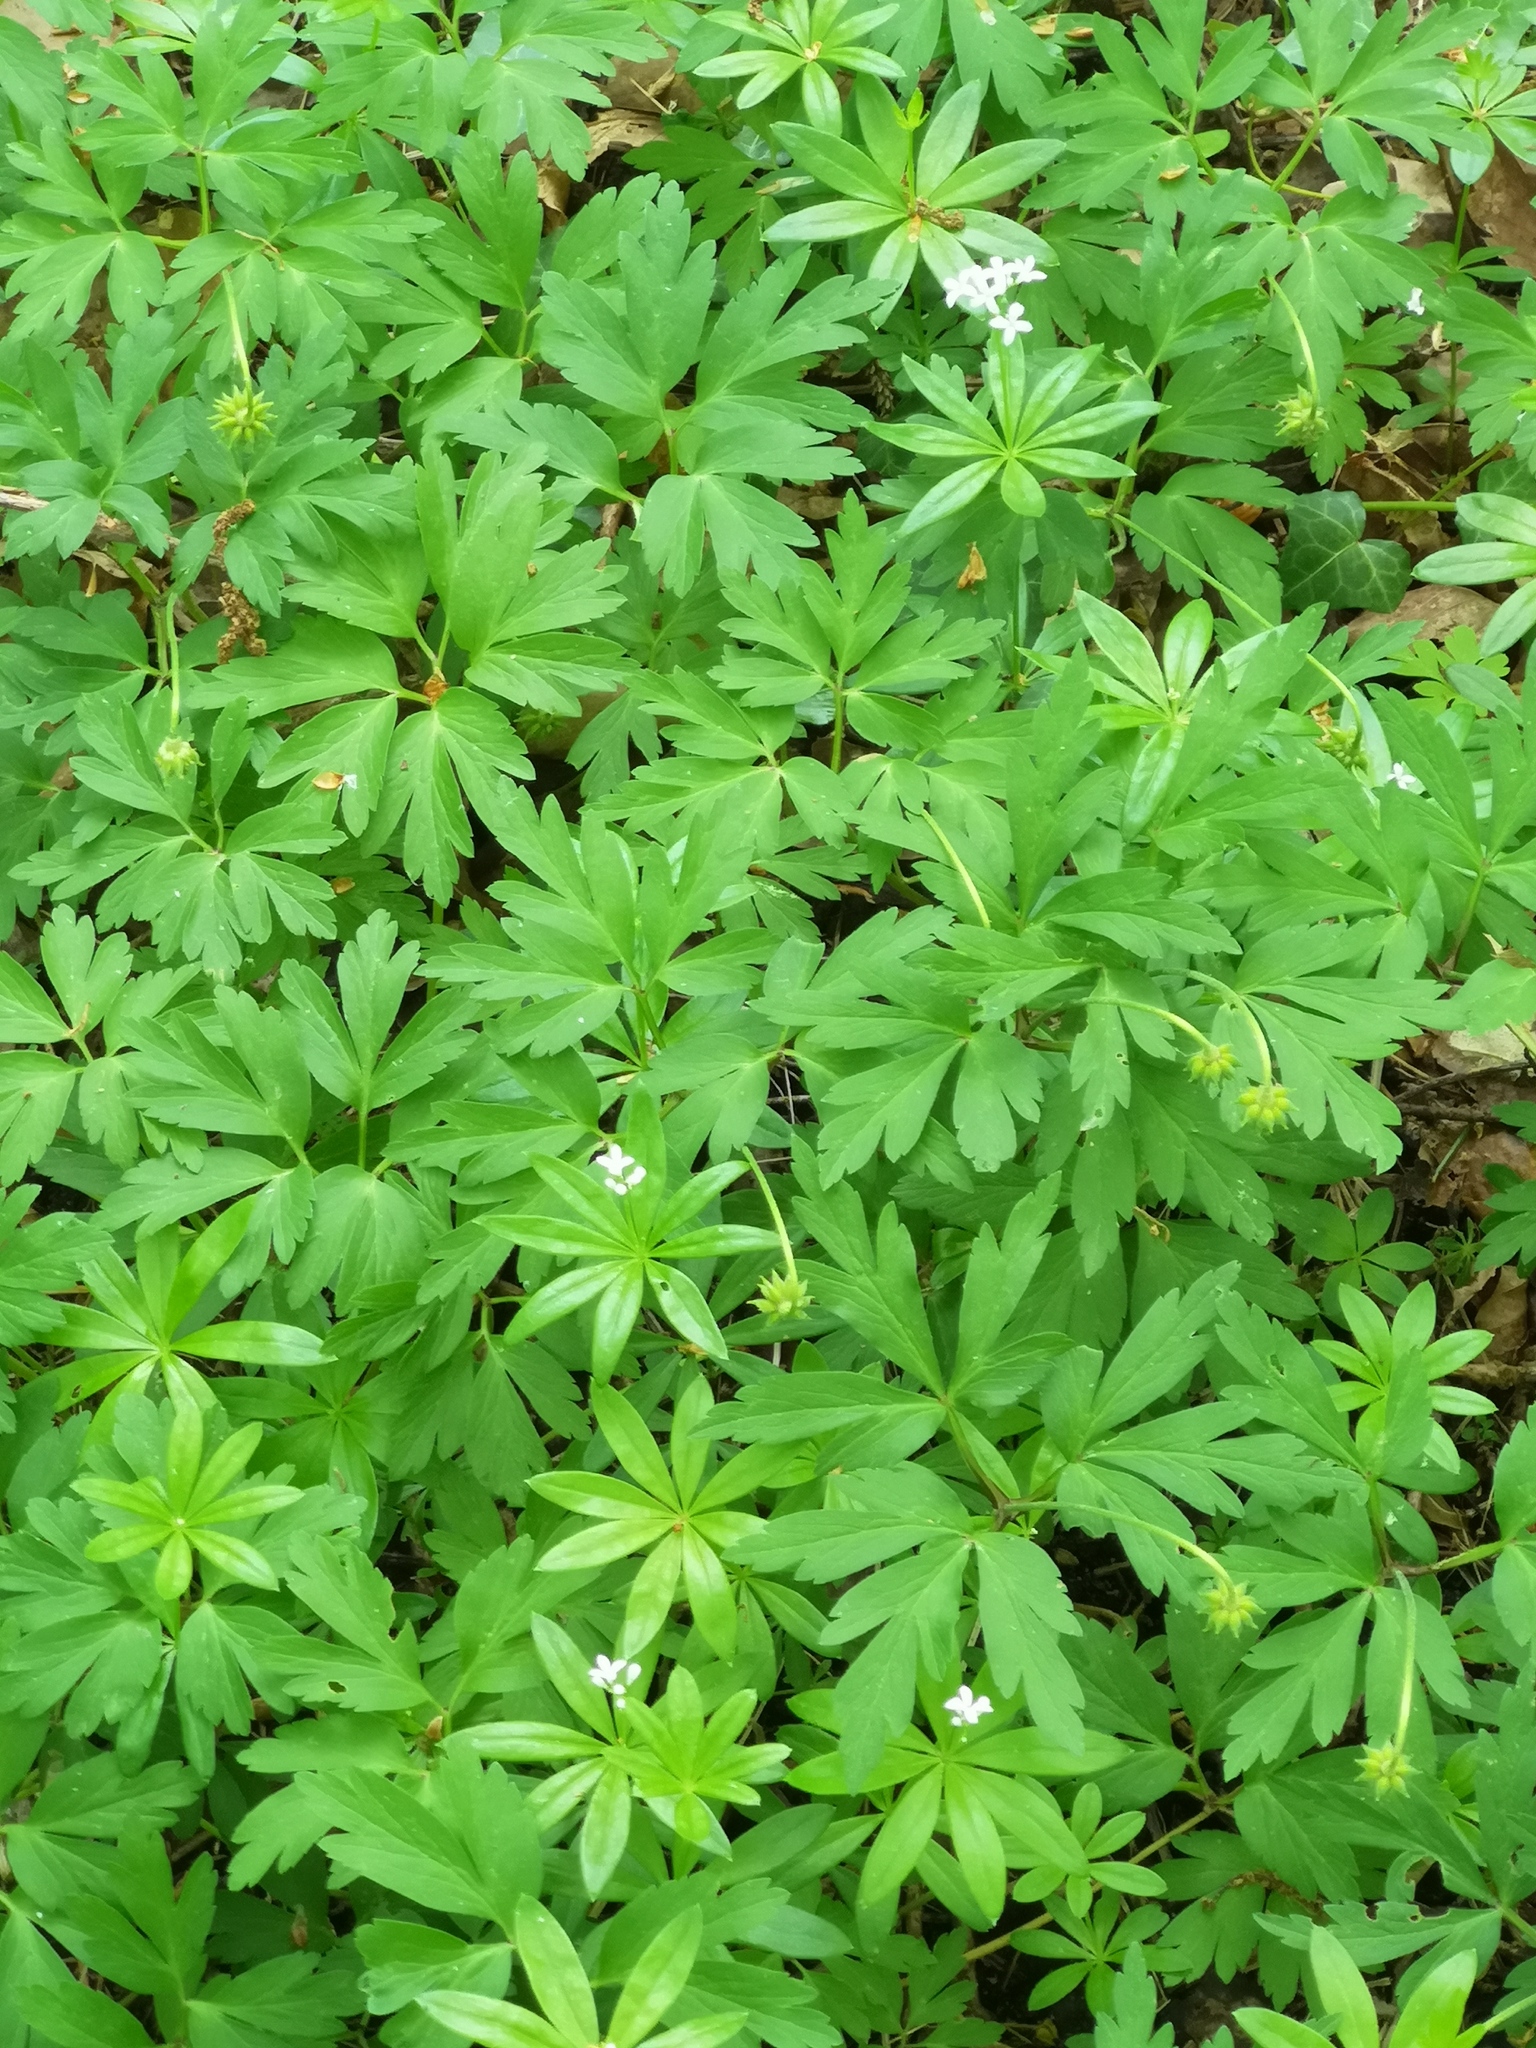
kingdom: Plantae
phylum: Tracheophyta
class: Magnoliopsida
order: Gentianales
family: Rubiaceae
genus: Galium
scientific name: Galium odoratum
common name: Sweet woodruff
